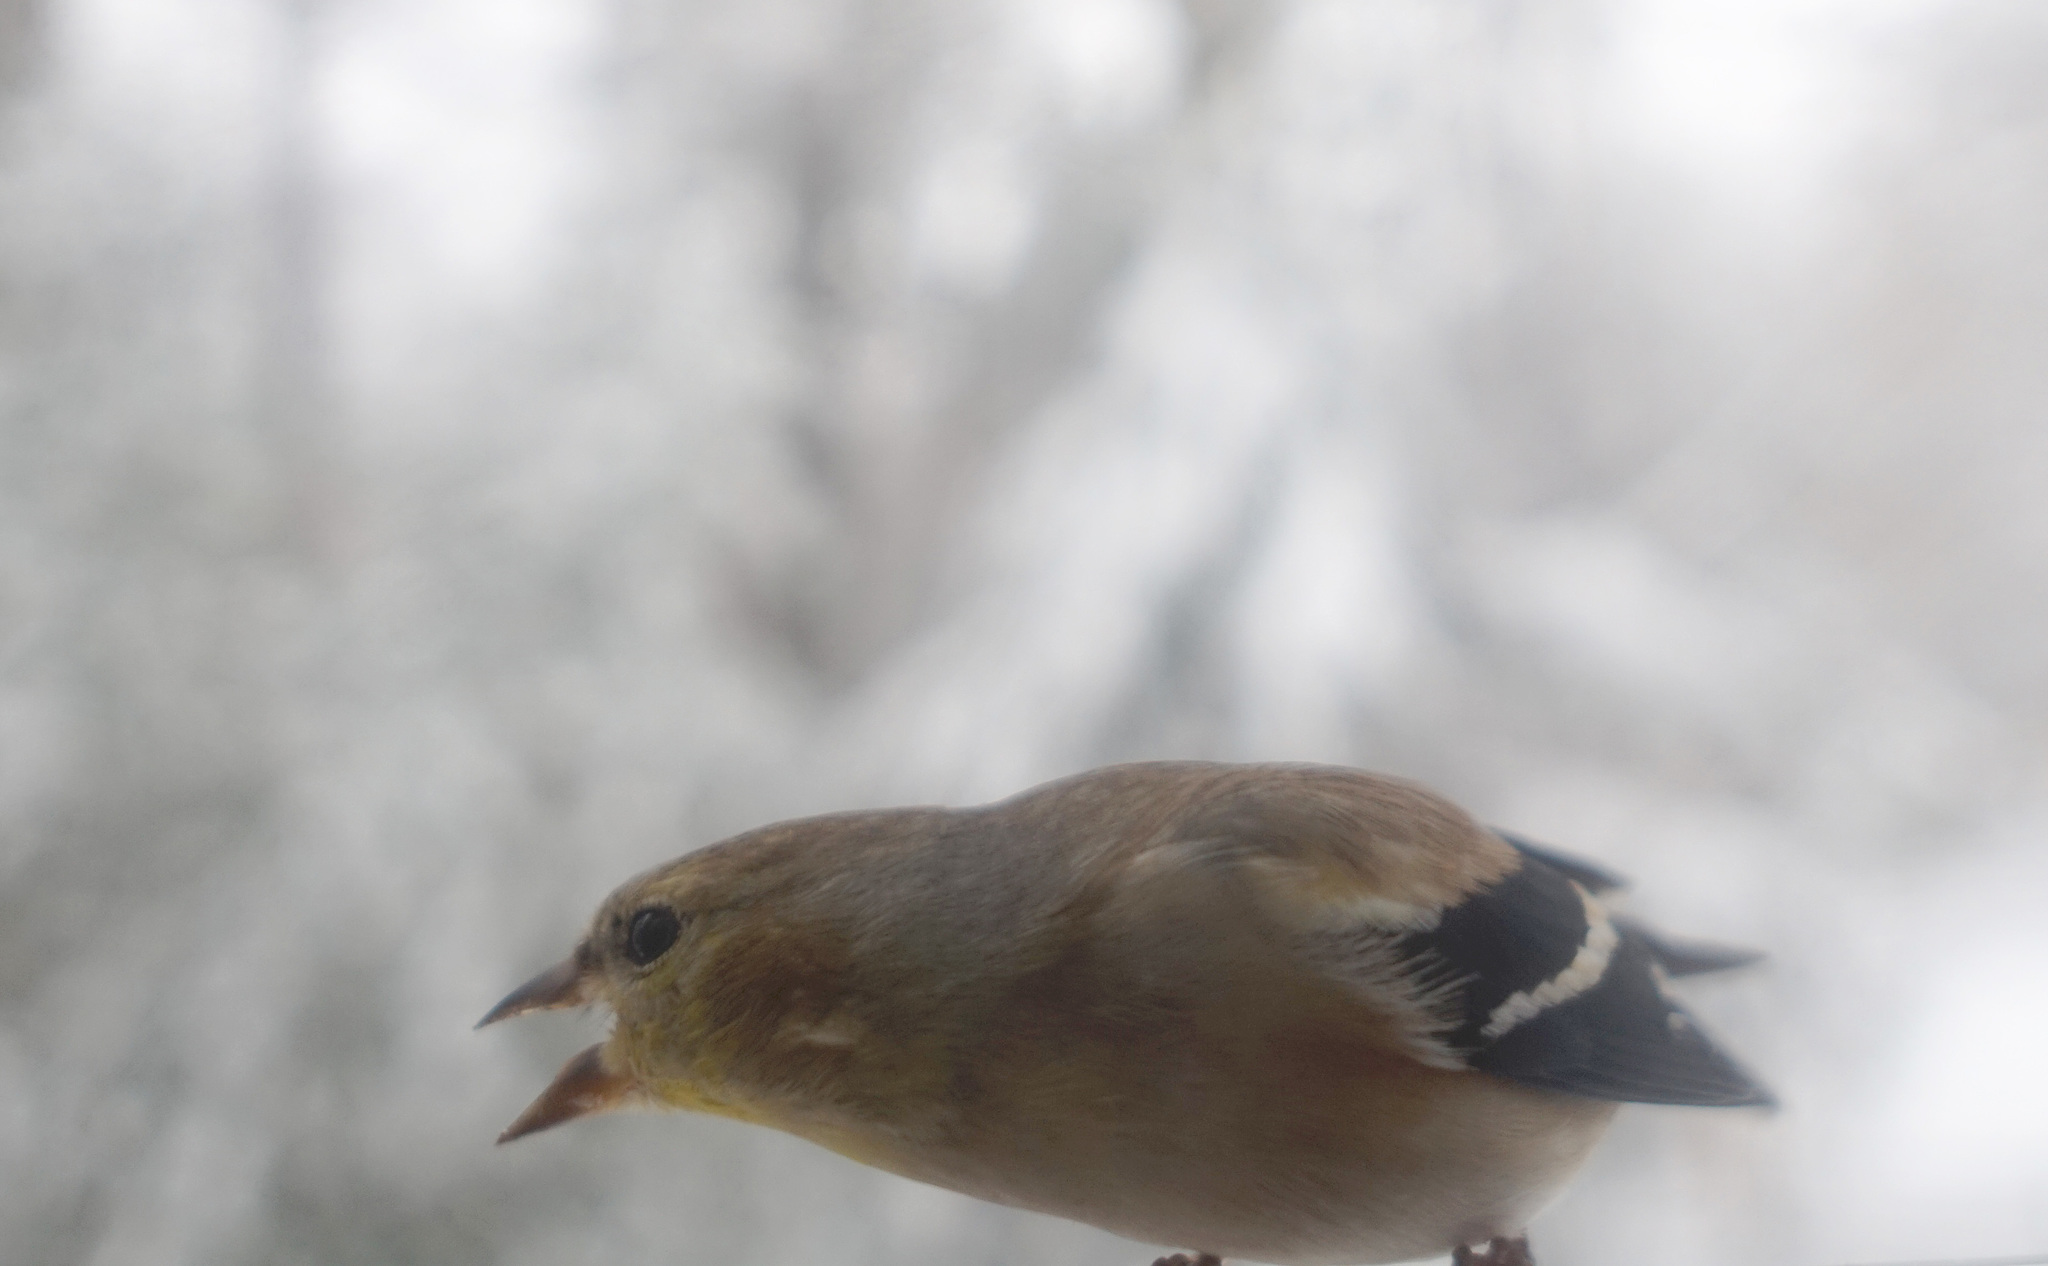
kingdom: Animalia
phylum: Chordata
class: Aves
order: Passeriformes
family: Fringillidae
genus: Spinus
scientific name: Spinus tristis
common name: American goldfinch
